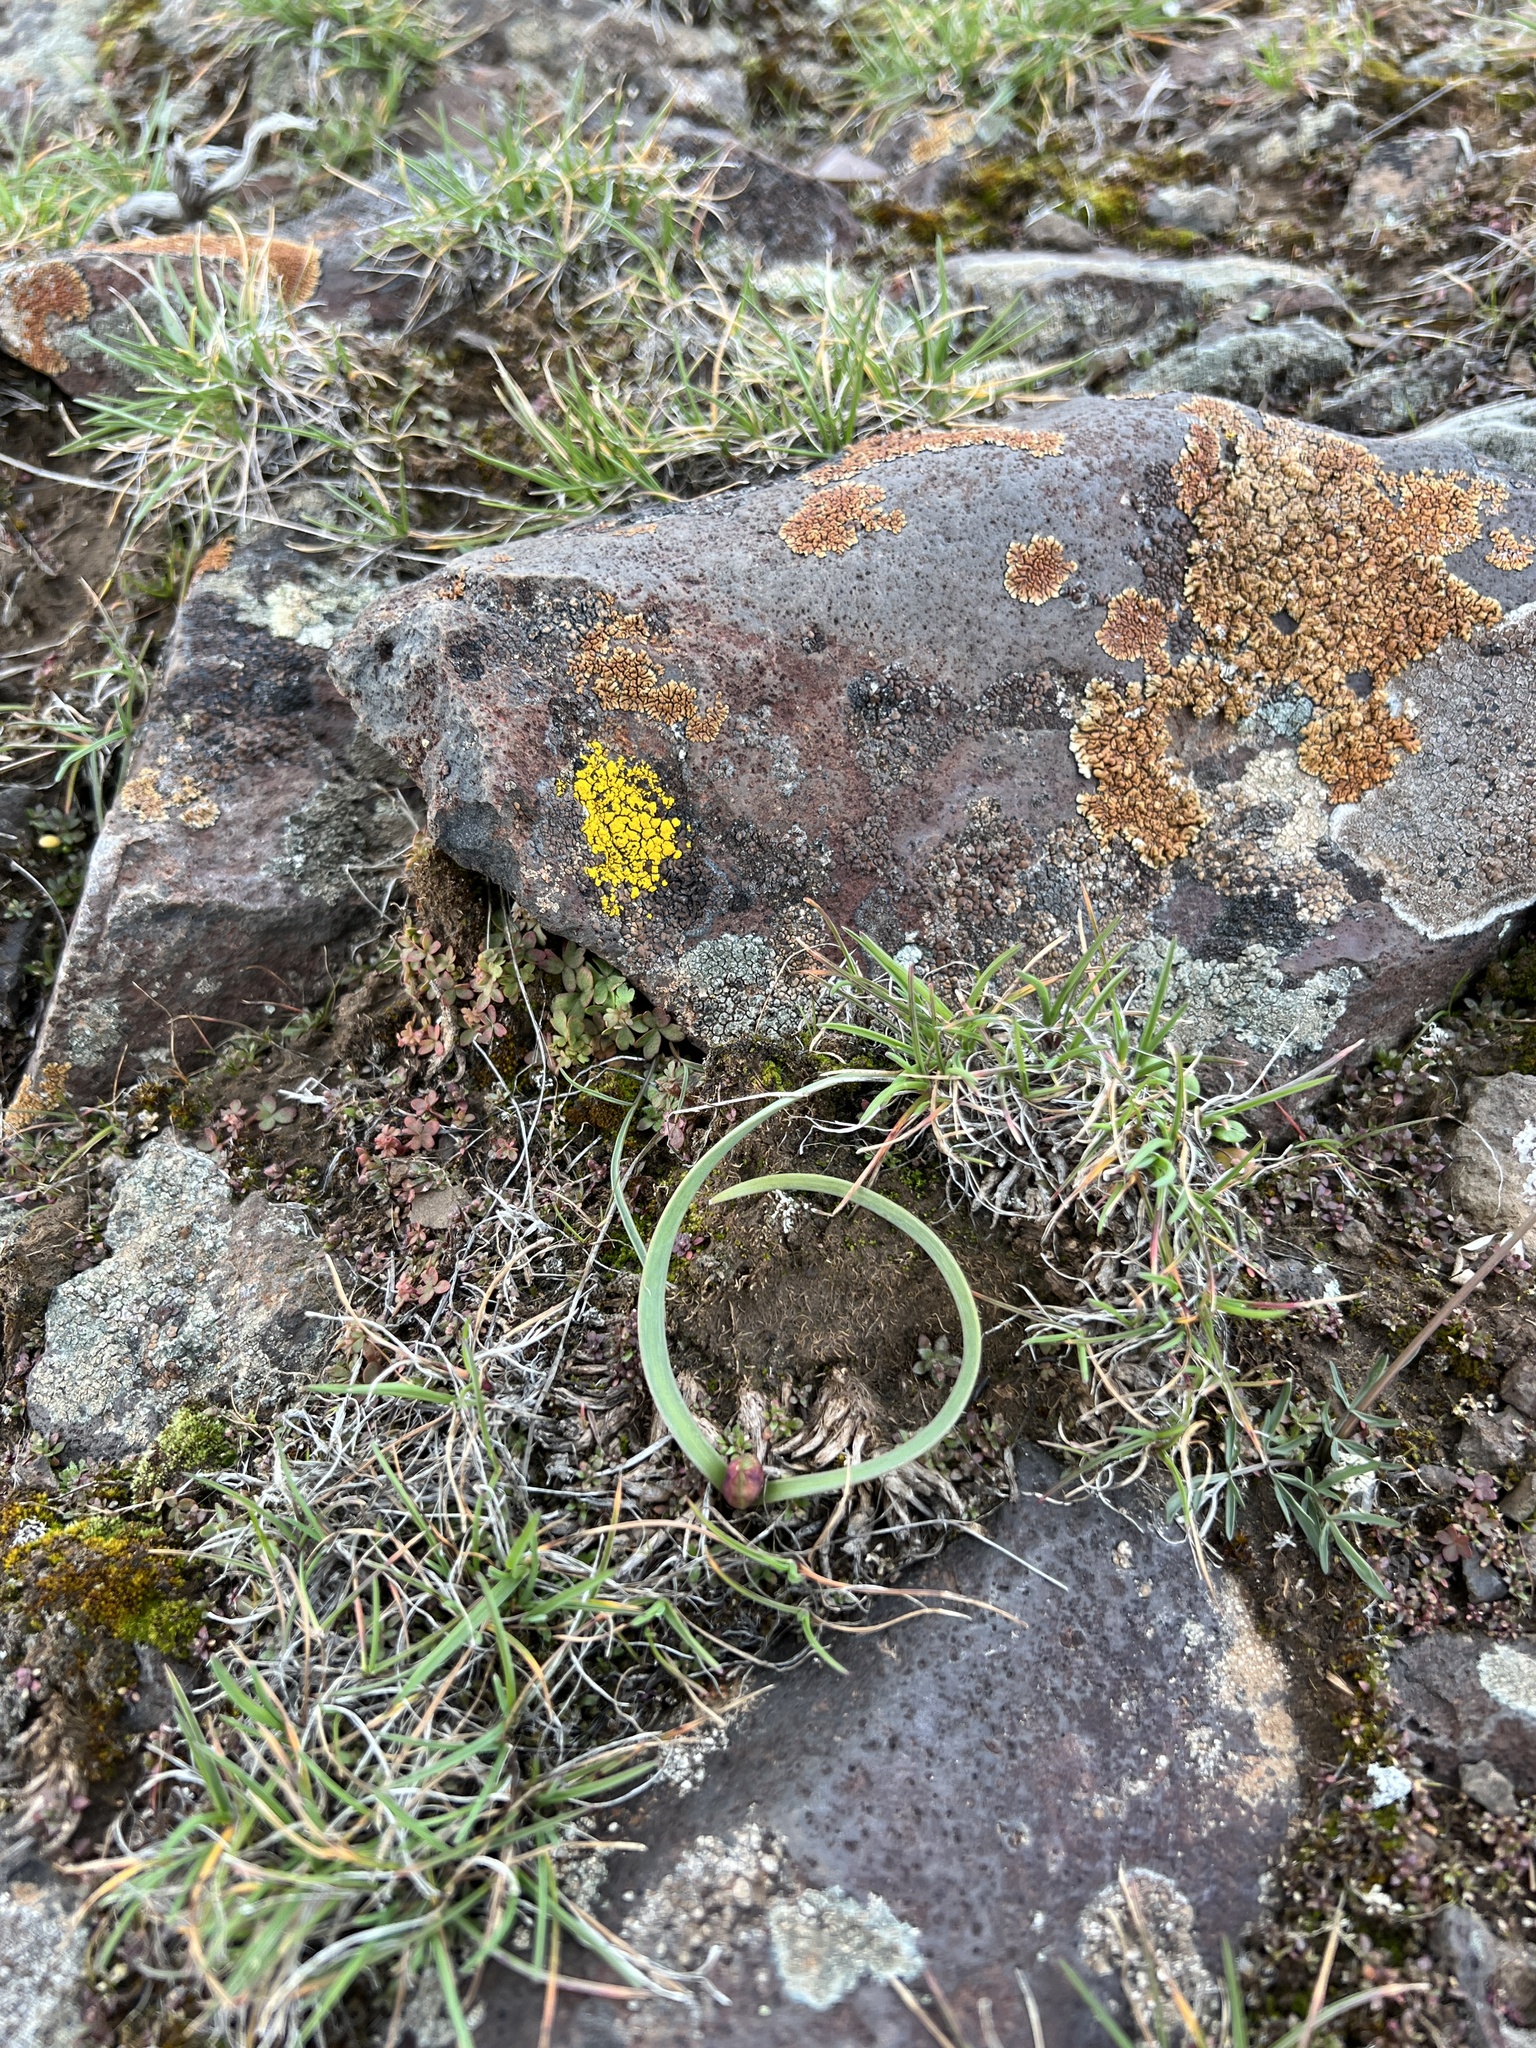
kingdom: Plantae
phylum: Tracheophyta
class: Liliopsida
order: Asparagales
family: Amaryllidaceae
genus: Allium
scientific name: Allium scilloides
